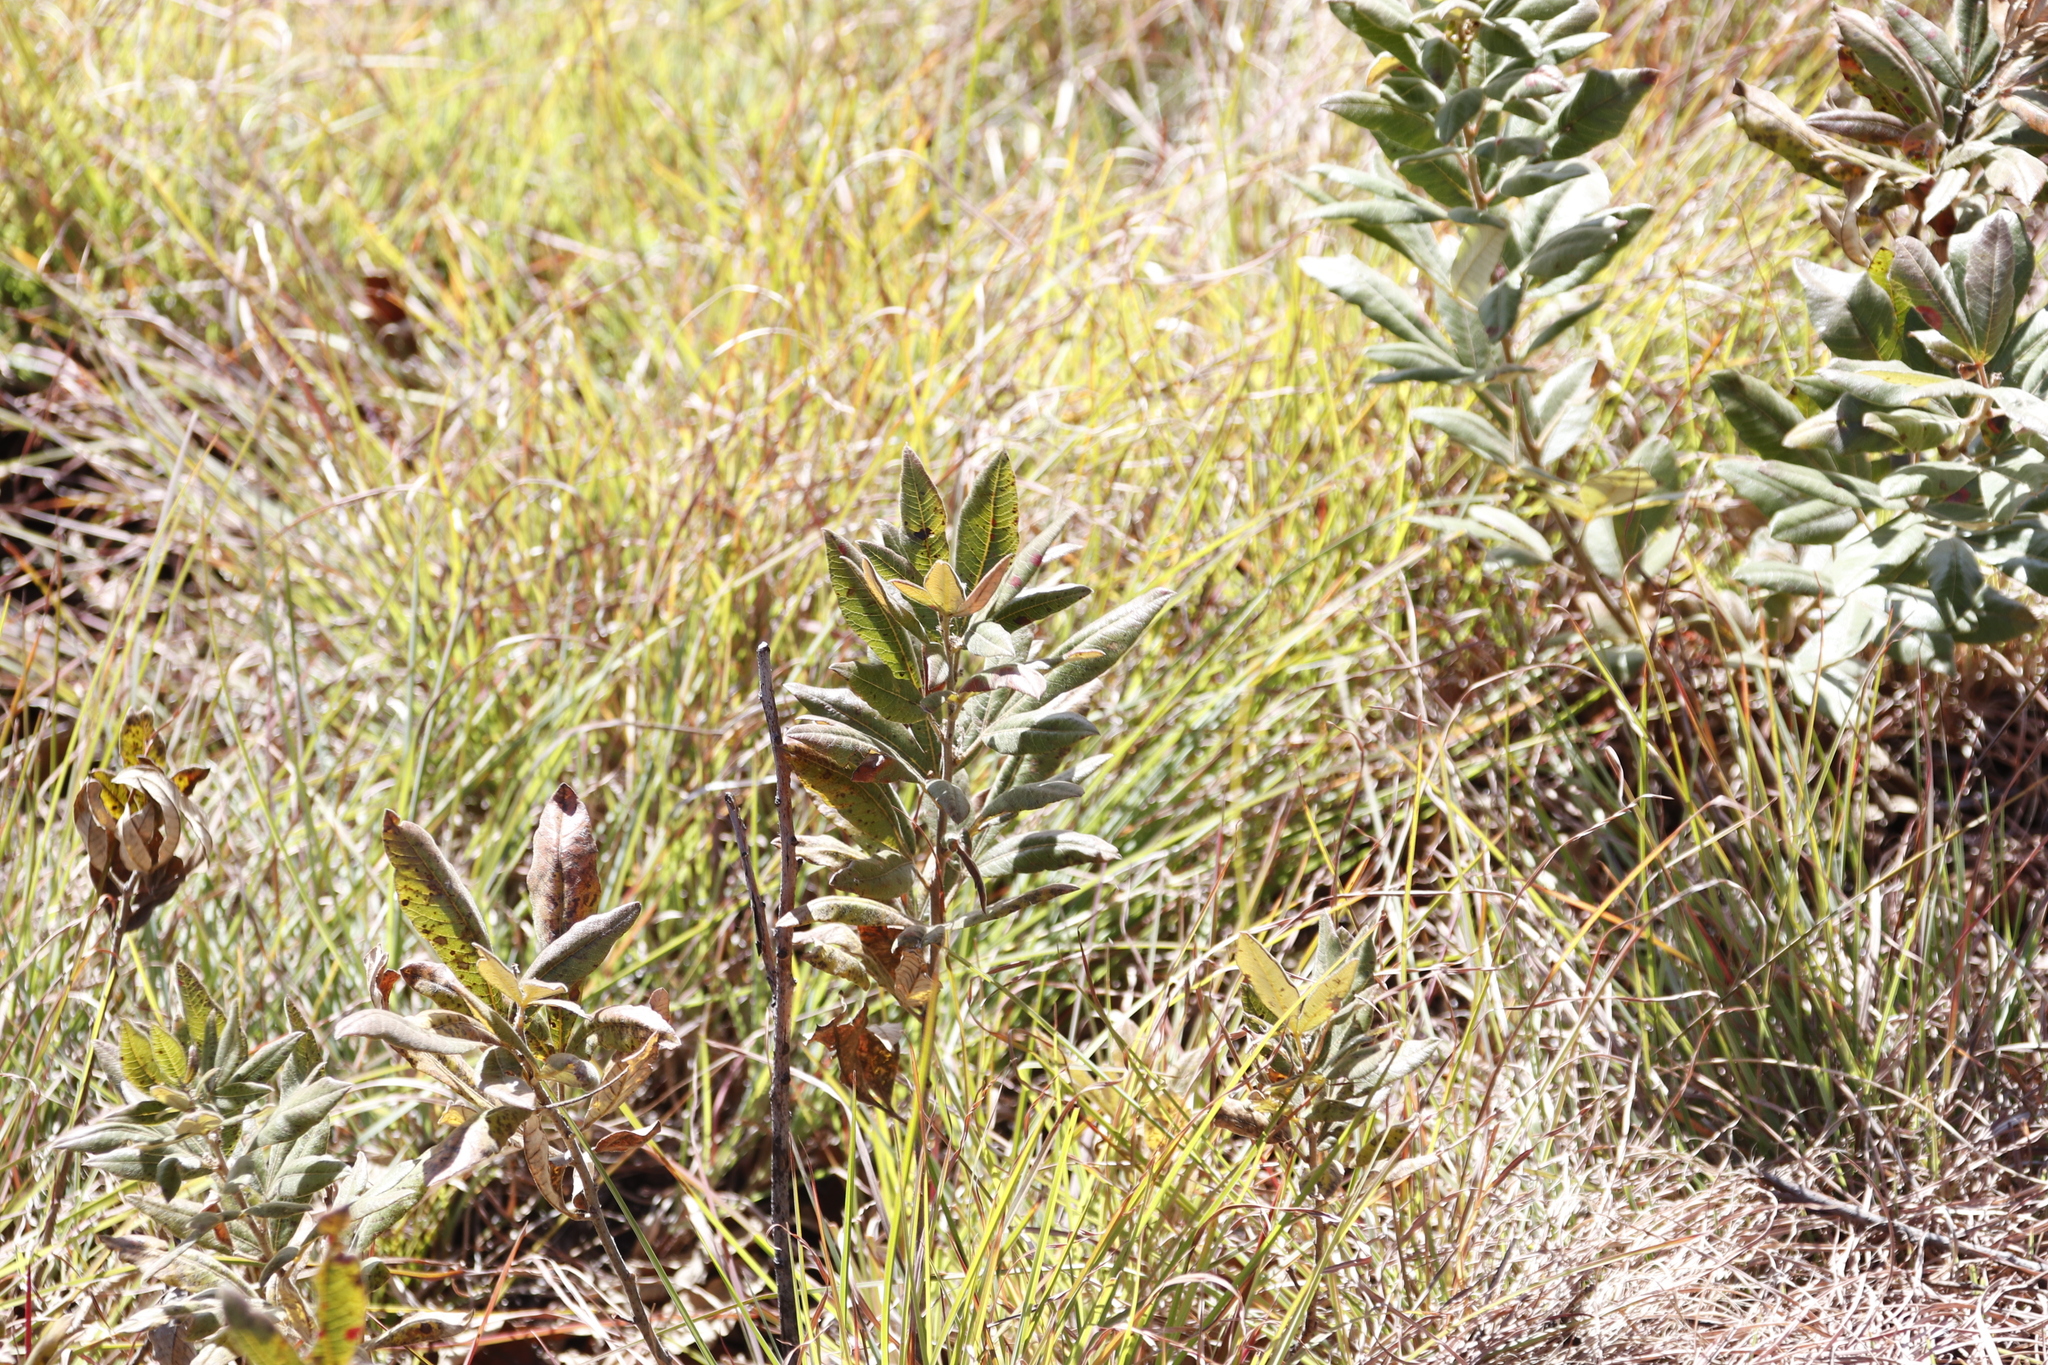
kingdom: Plantae
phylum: Tracheophyta
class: Magnoliopsida
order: Sapindales
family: Anacardiaceae
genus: Searsia
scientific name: Searsia discolor
